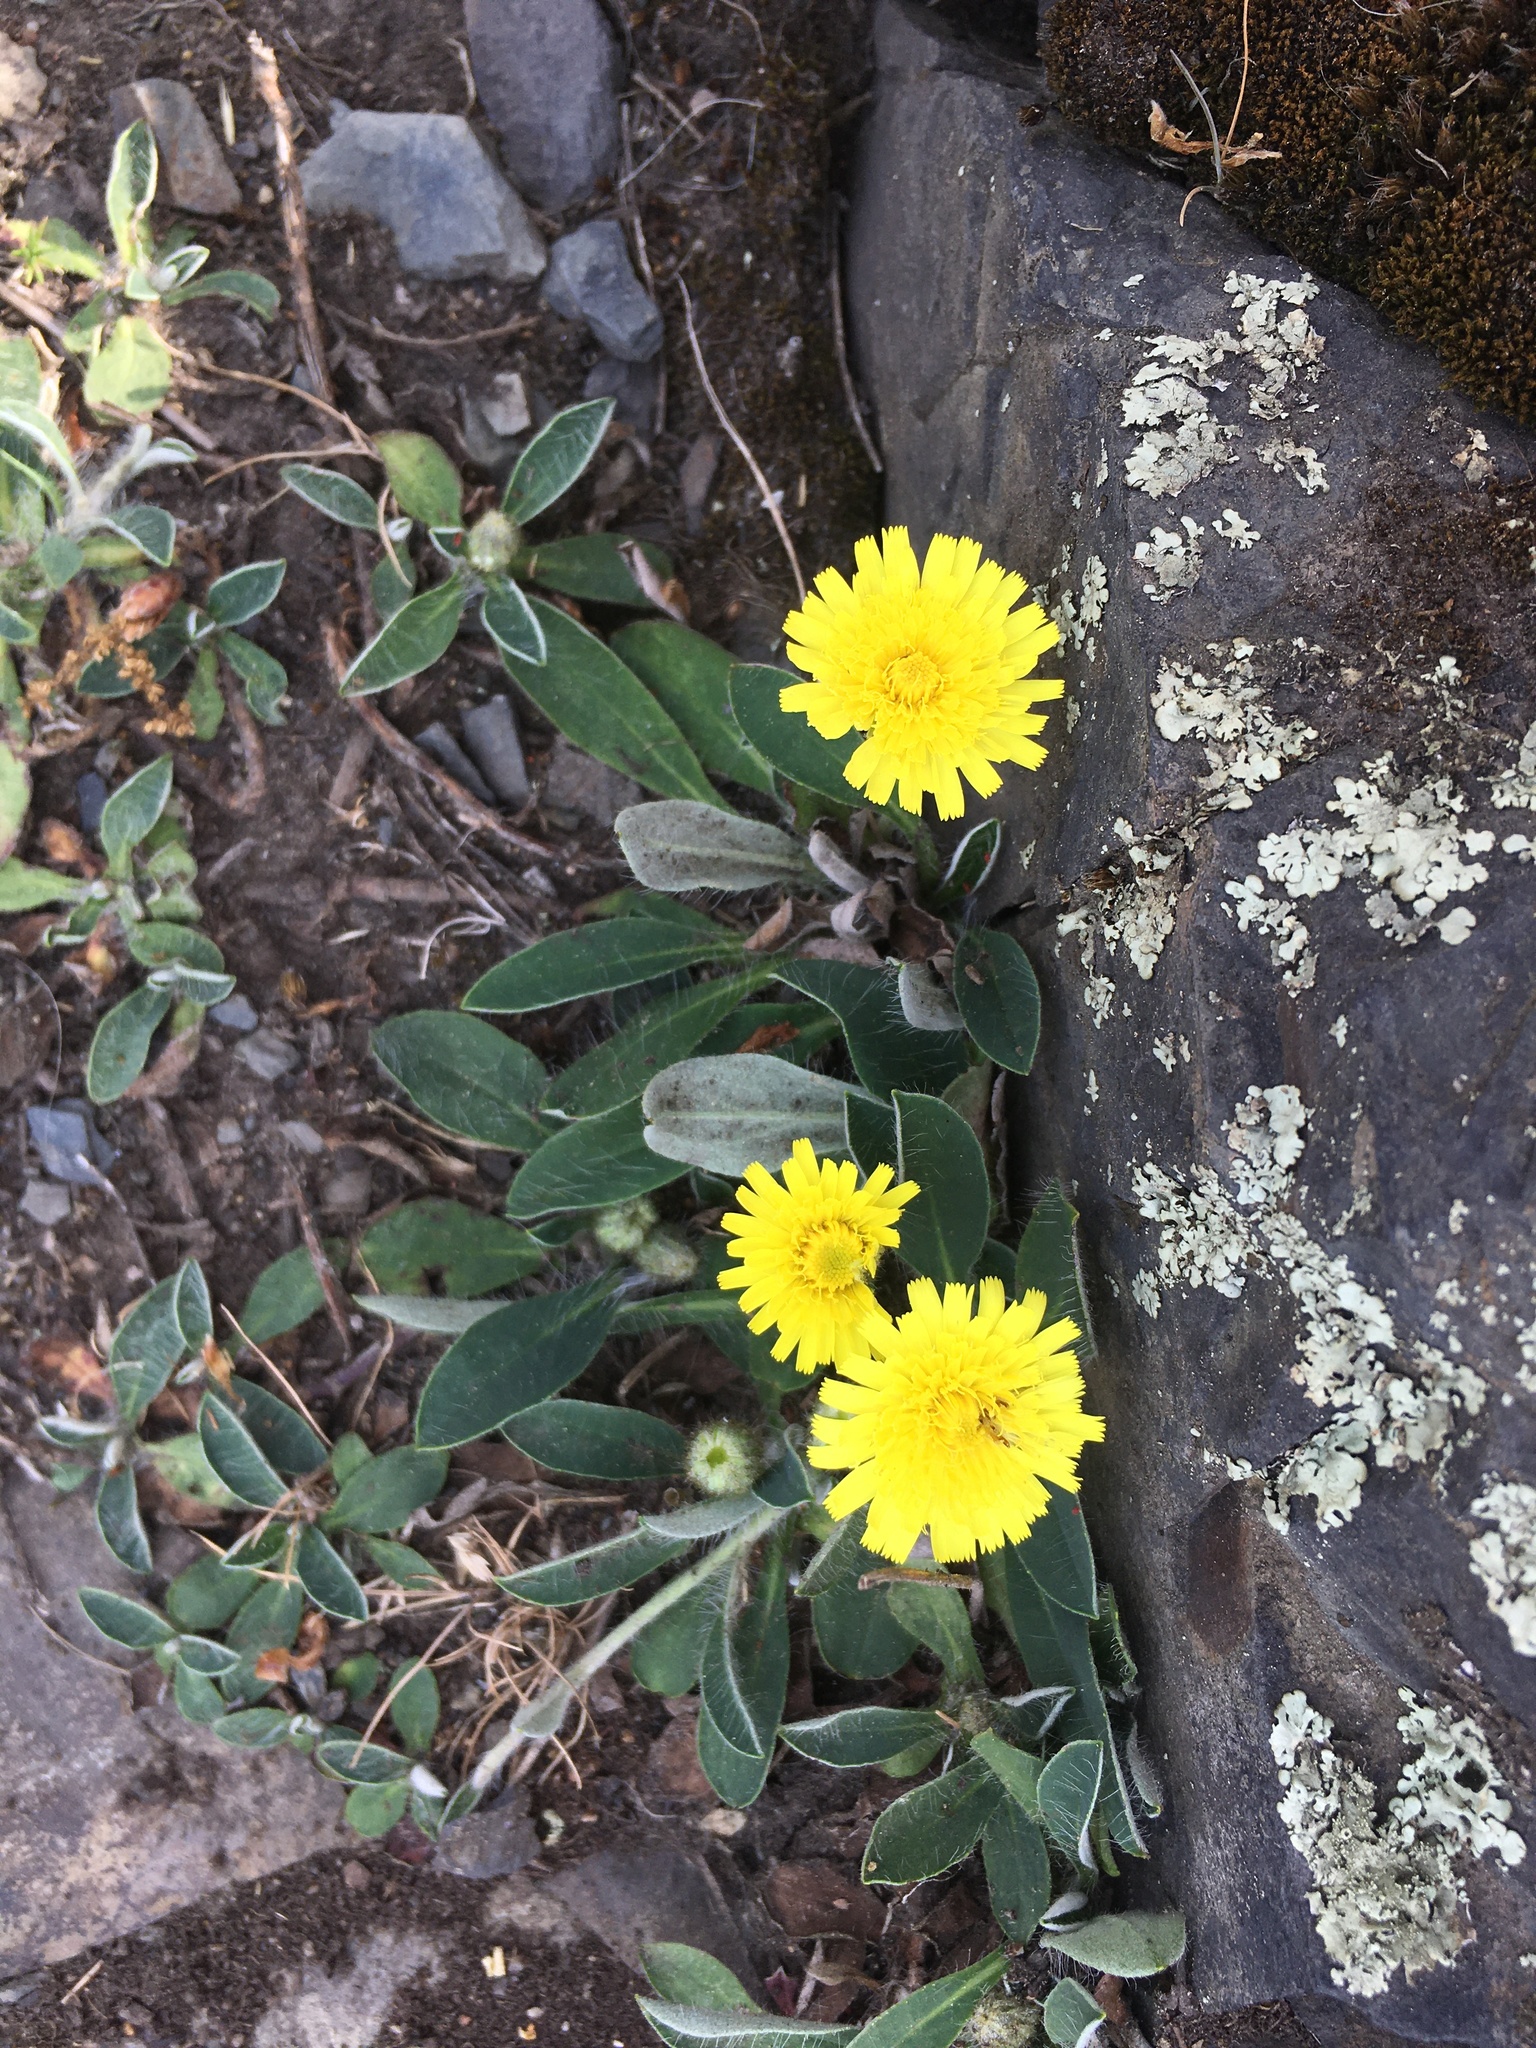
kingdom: Plantae
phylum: Tracheophyta
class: Magnoliopsida
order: Asterales
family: Asteraceae
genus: Pilosella
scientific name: Pilosella officinarum
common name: Mouse-ear hawkweed
